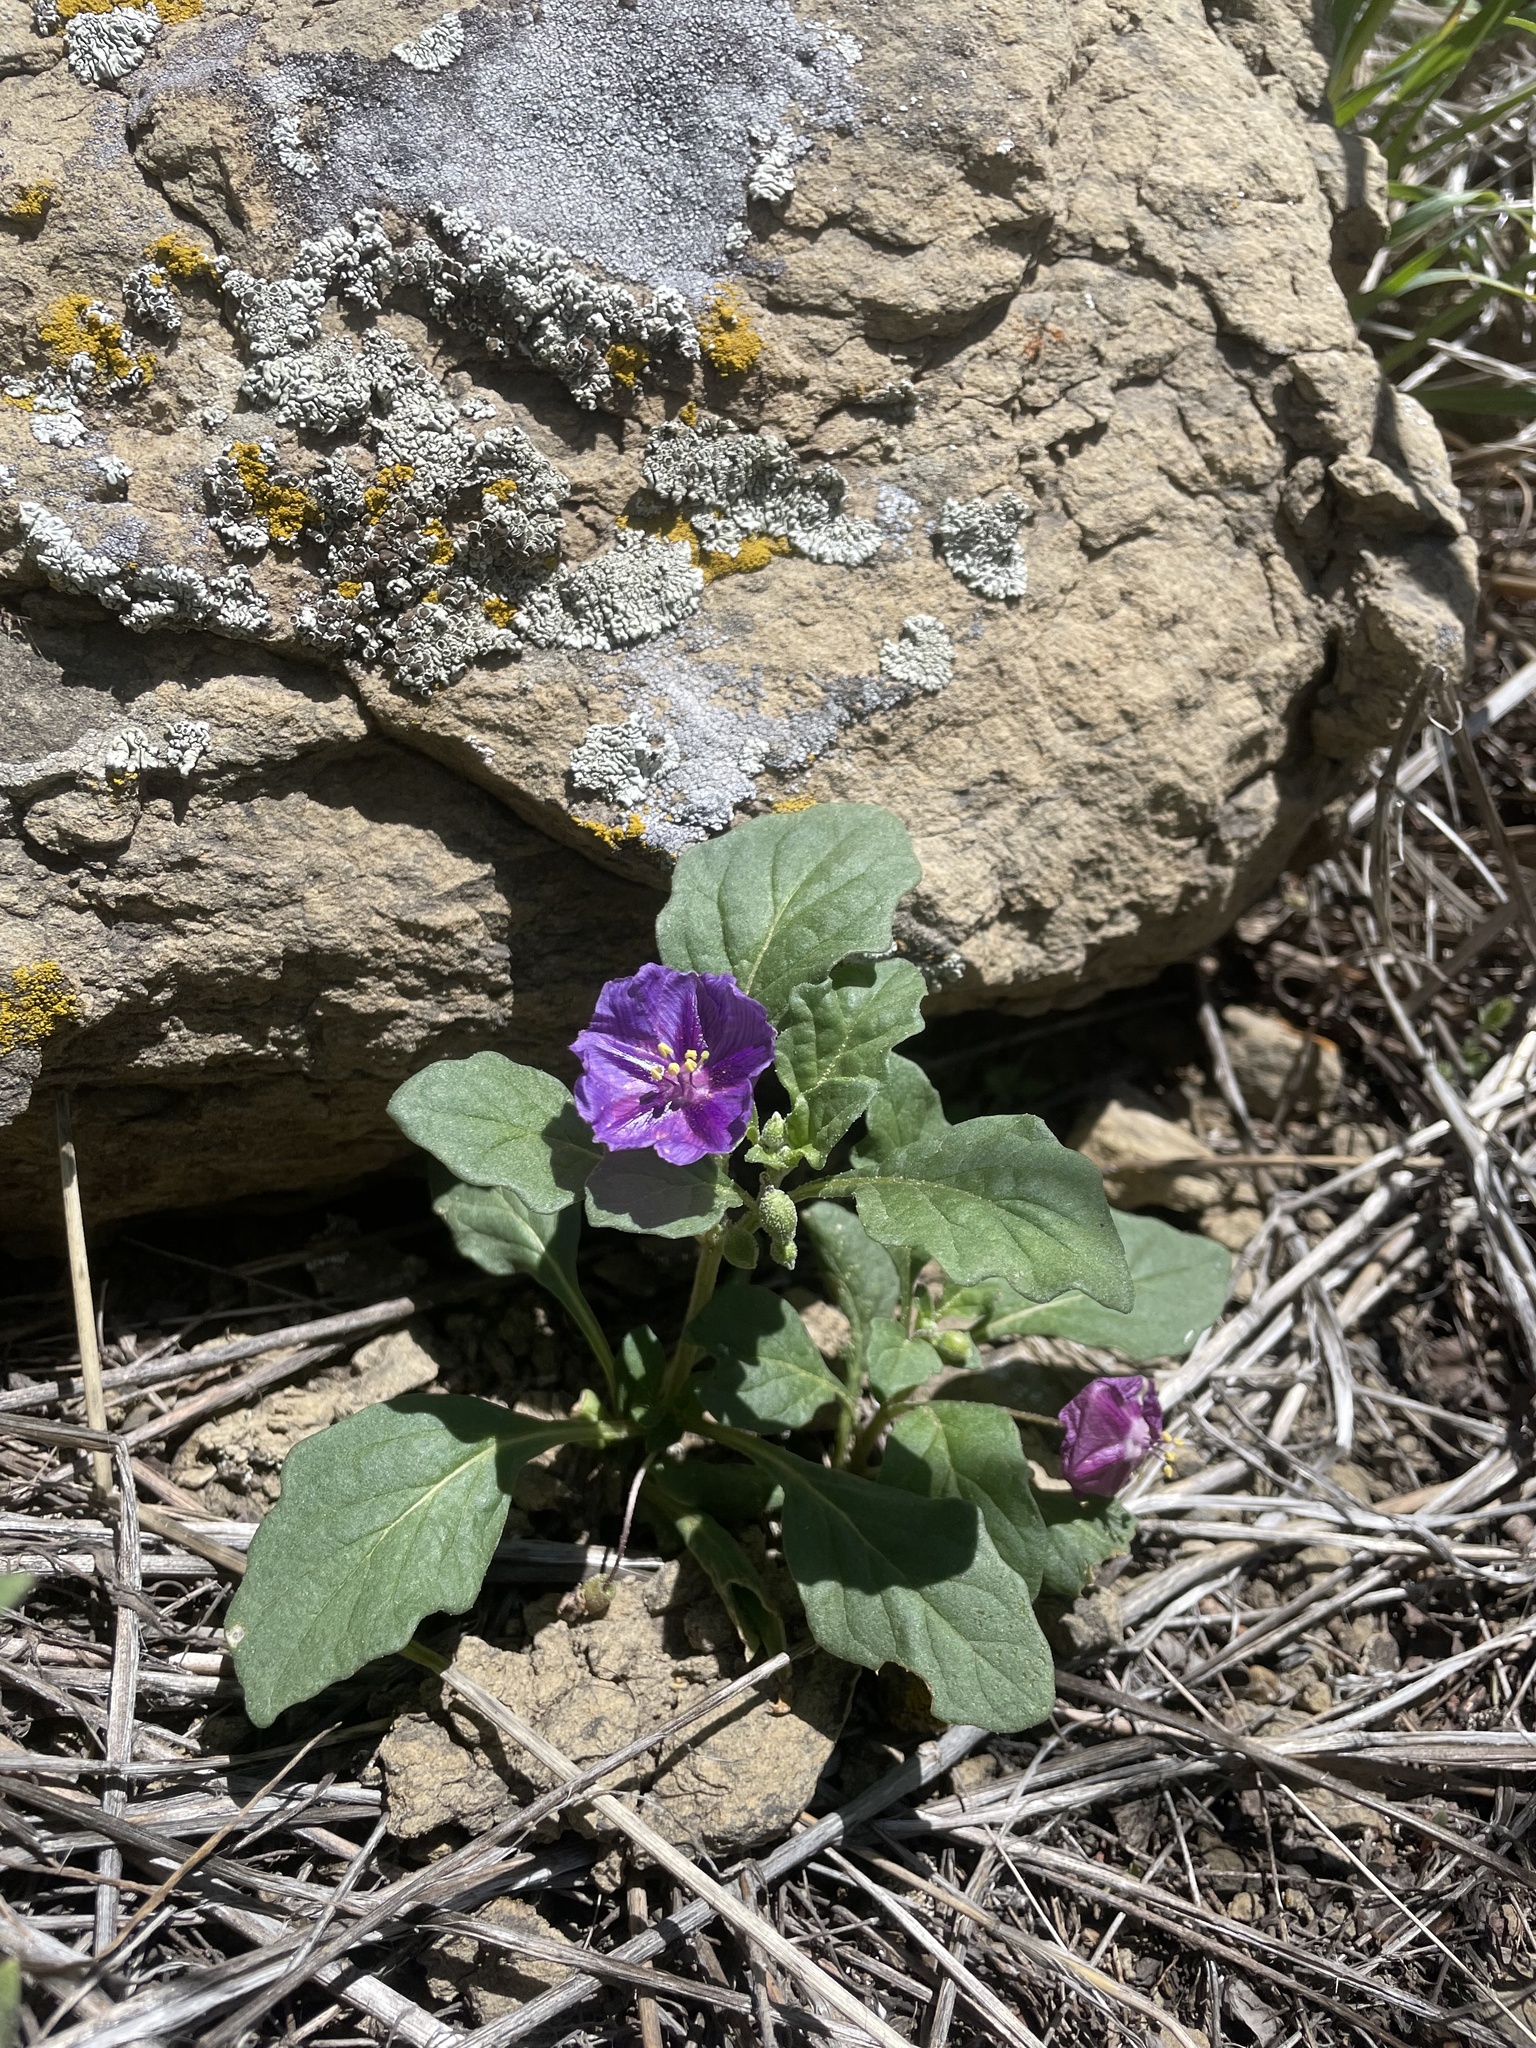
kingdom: Plantae
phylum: Tracheophyta
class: Magnoliopsida
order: Solanales
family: Solanaceae
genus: Quincula
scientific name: Quincula lobata
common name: Purple-ground-cherry
